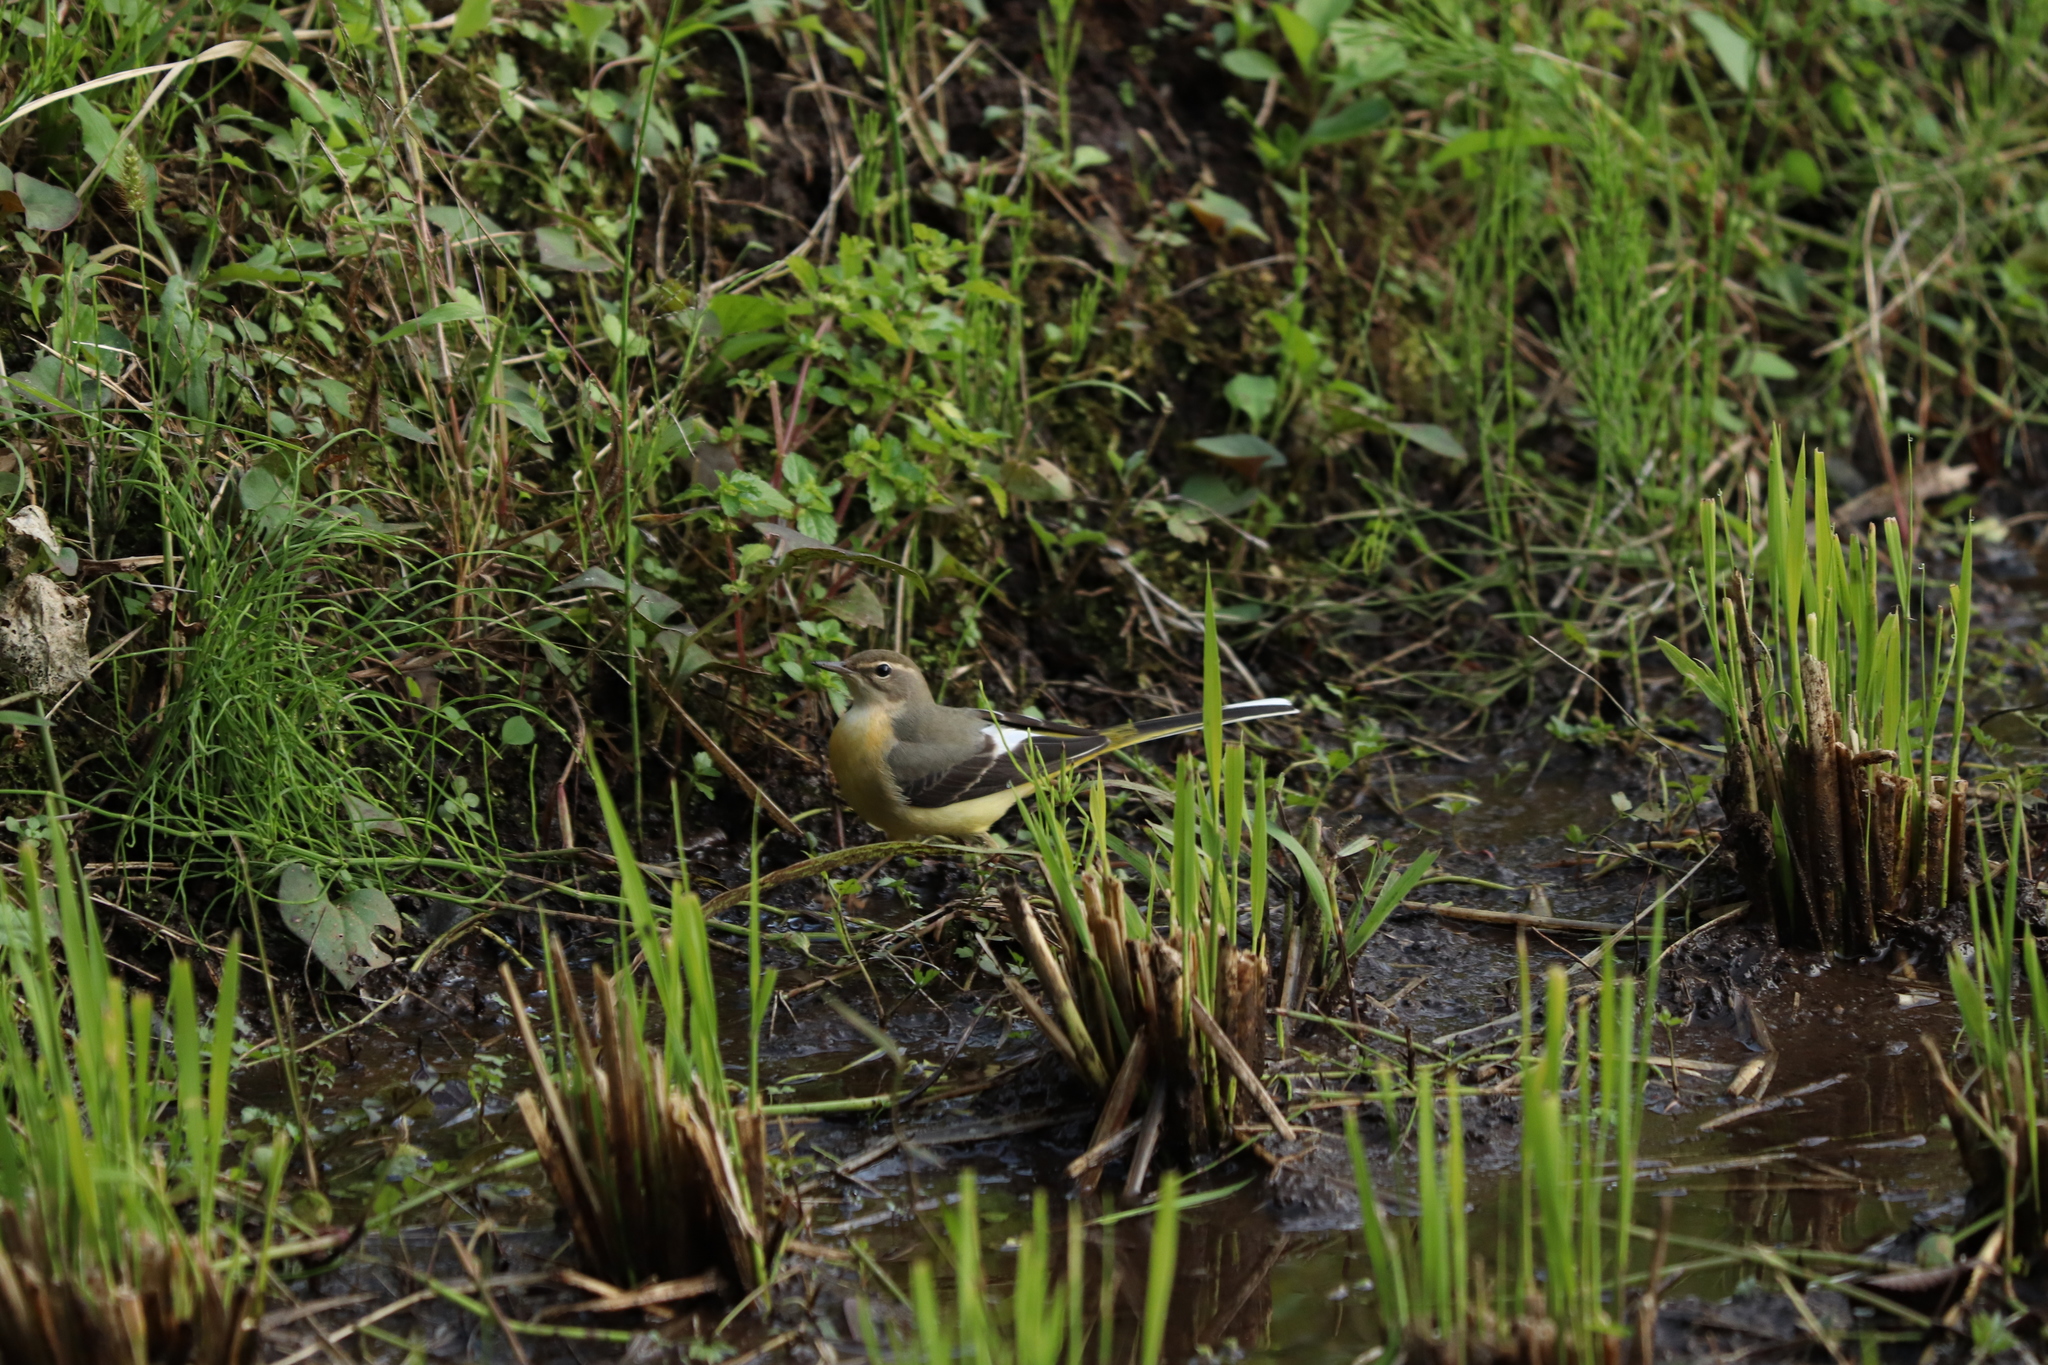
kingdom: Animalia
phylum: Chordata
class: Aves
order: Passeriformes
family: Motacillidae
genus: Motacilla
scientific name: Motacilla cinerea
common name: Grey wagtail
